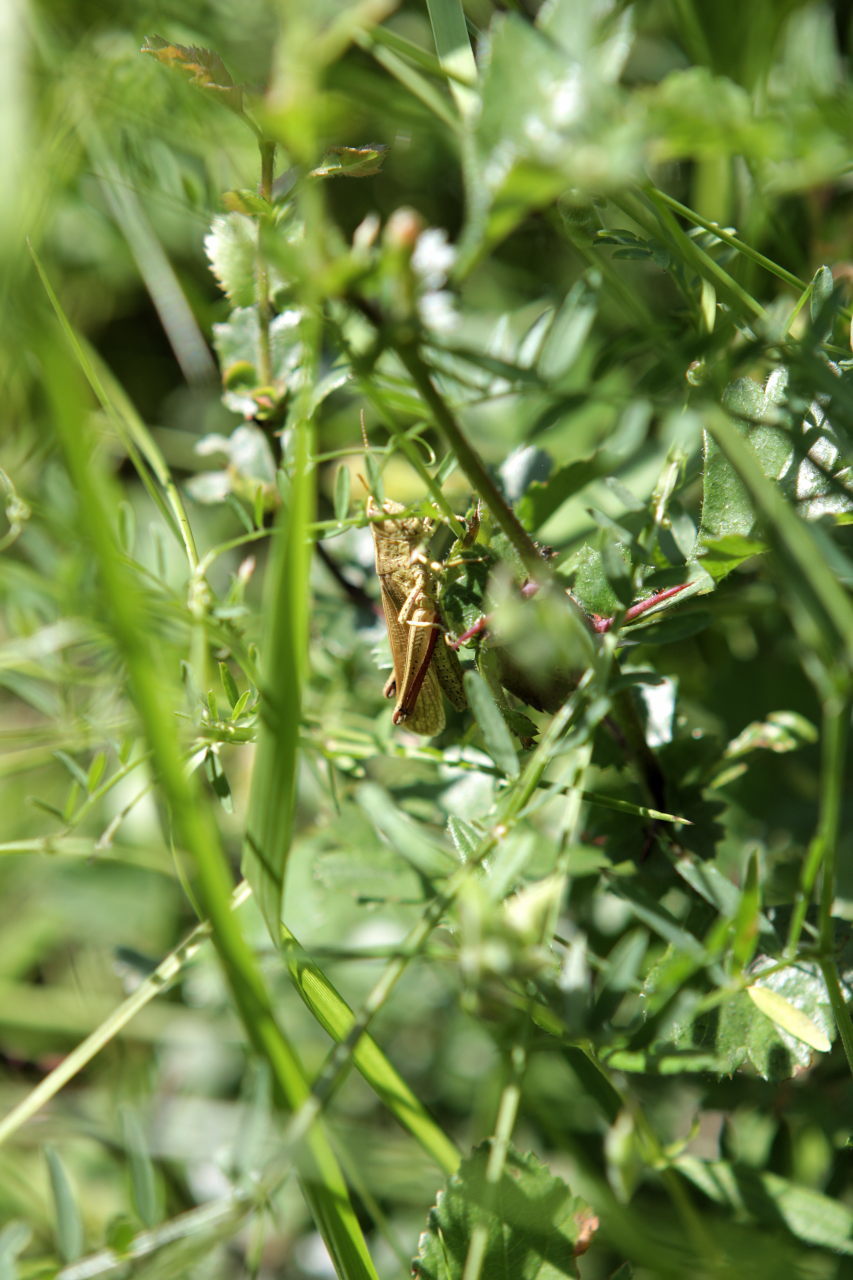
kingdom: Animalia
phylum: Arthropoda
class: Insecta
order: Orthoptera
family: Acrididae
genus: Chrysochraon
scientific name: Chrysochraon dispar
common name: Large gold grasshopper
